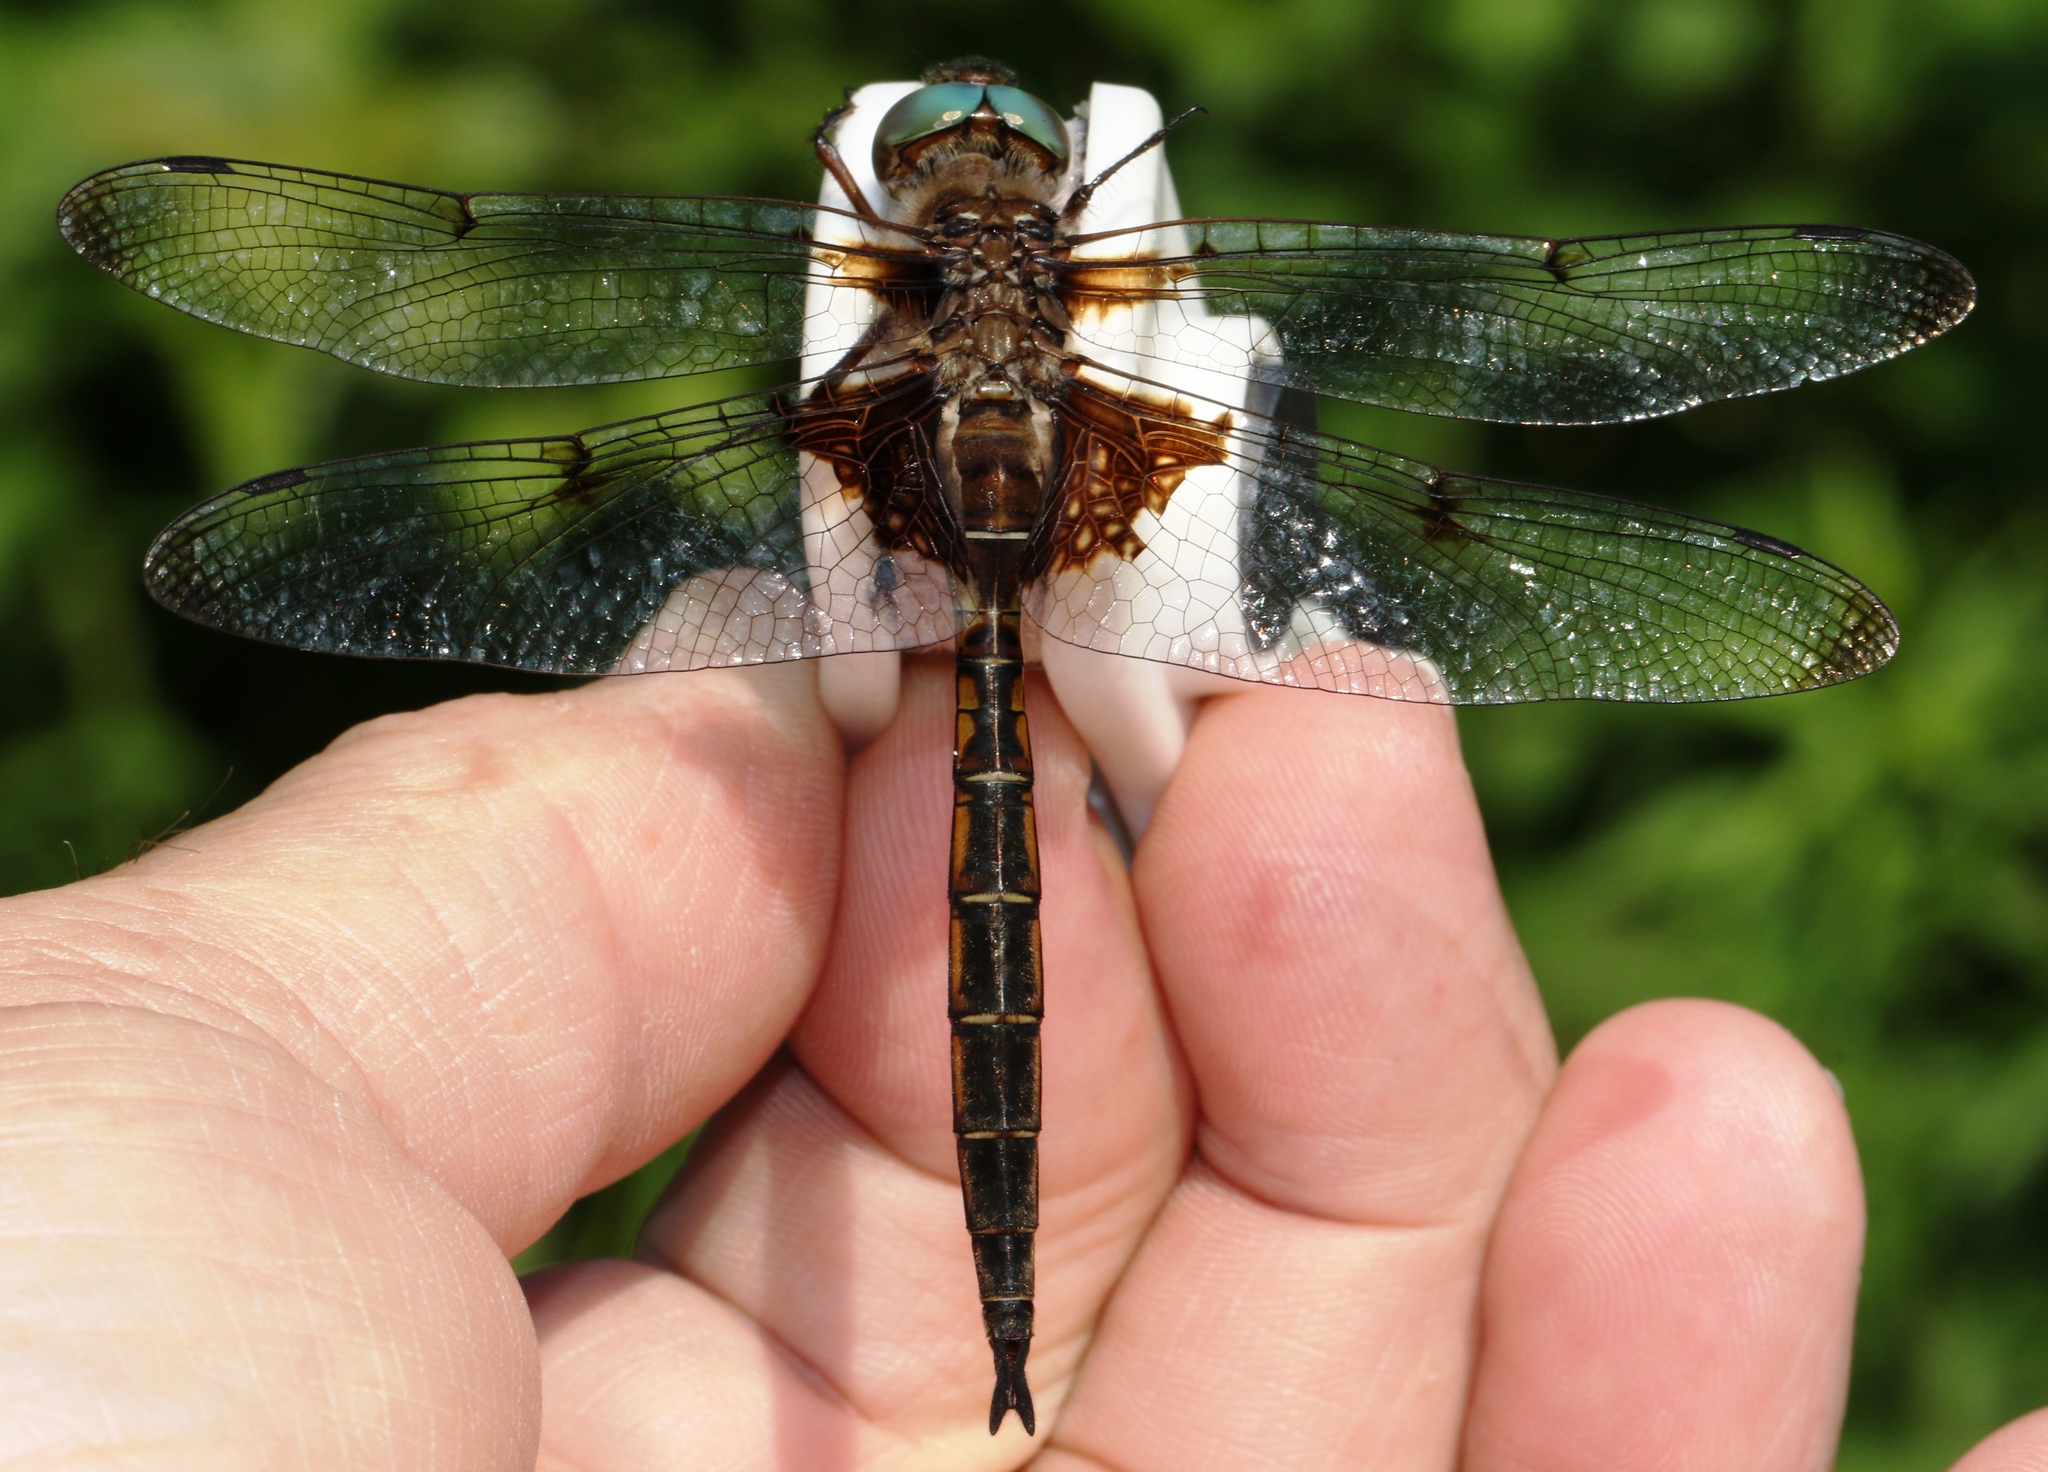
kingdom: Animalia
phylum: Arthropoda
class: Insecta
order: Odonata
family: Corduliidae
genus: Epitheca
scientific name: Epitheca princeps
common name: Prince baskettail
